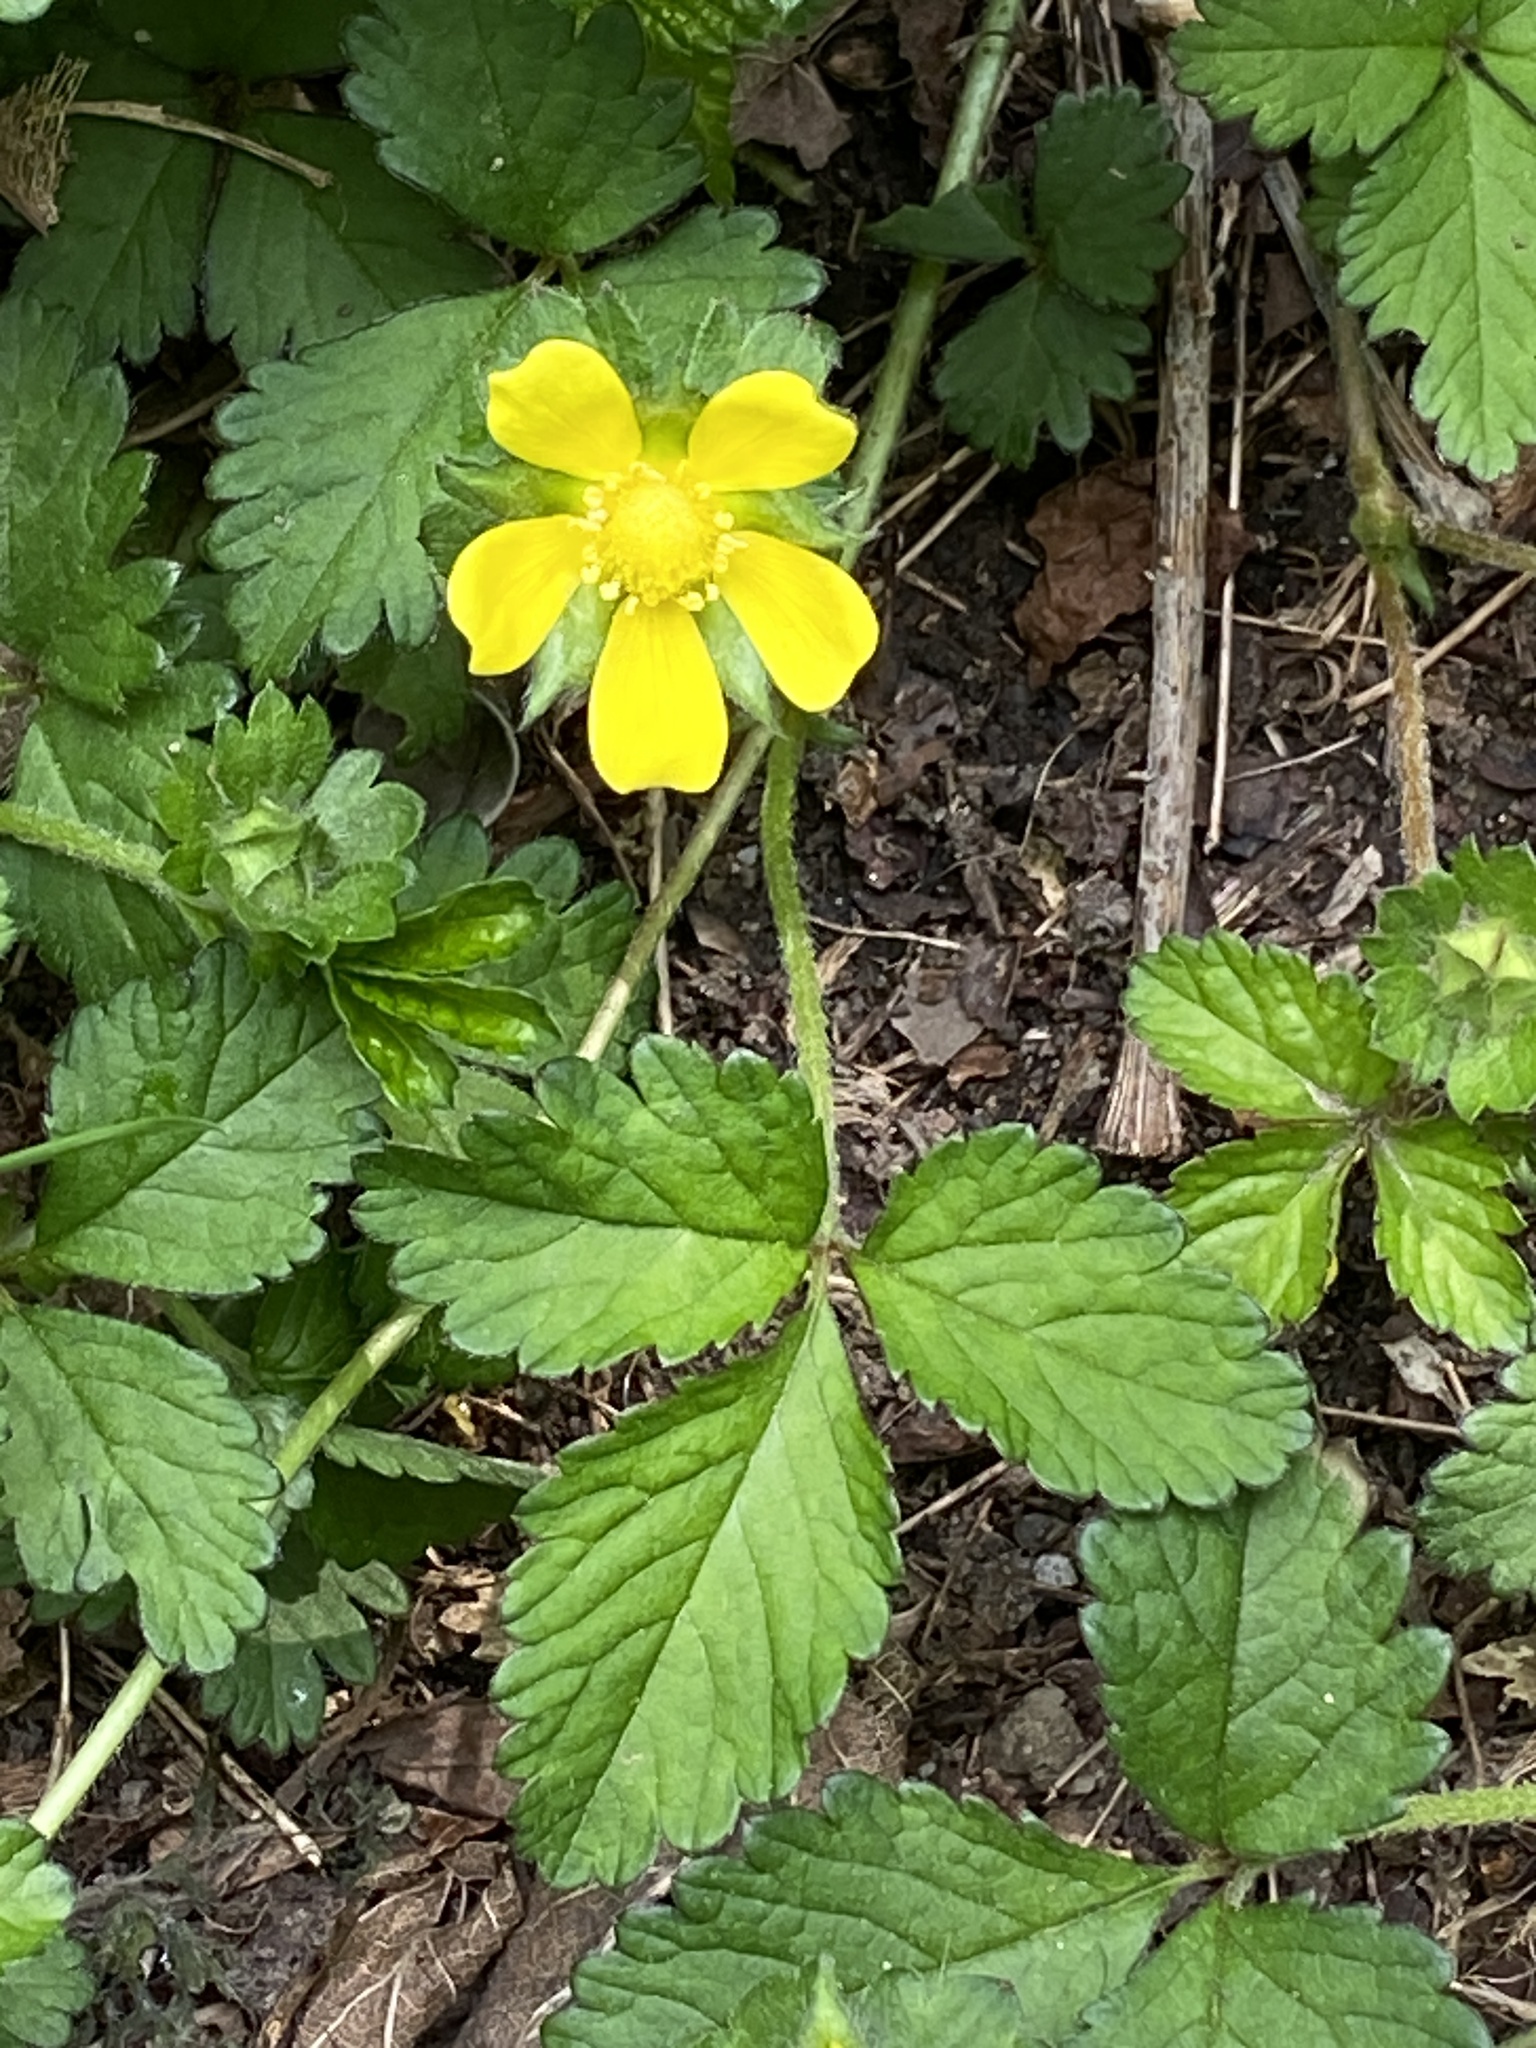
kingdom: Plantae
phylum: Tracheophyta
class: Magnoliopsida
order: Rosales
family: Rosaceae
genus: Potentilla
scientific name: Potentilla indica
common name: Yellow-flowered strawberry
